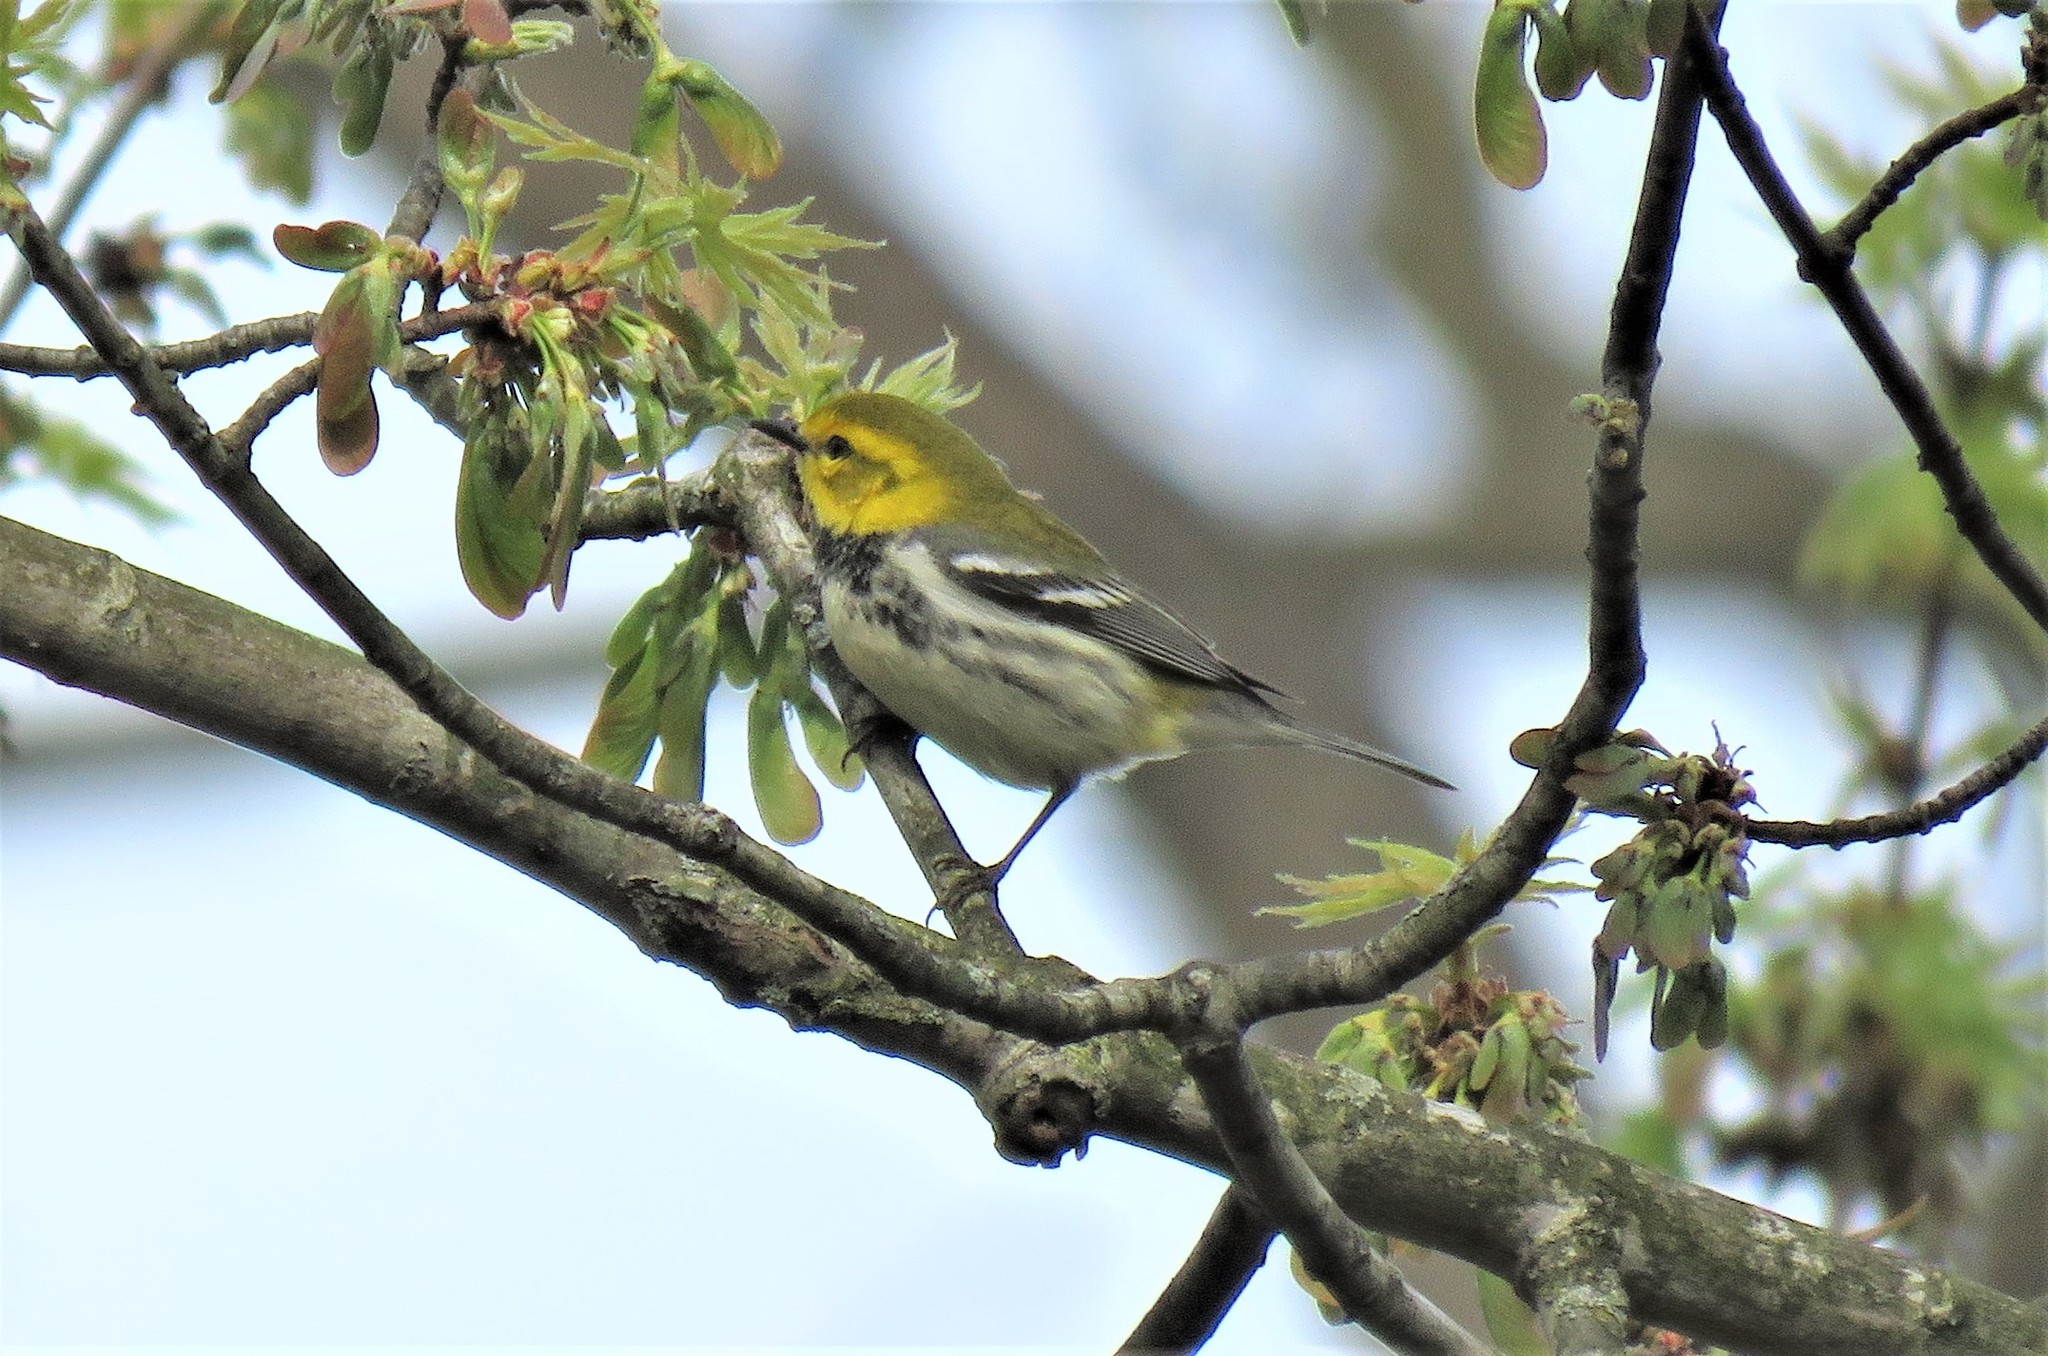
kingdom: Animalia
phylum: Chordata
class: Aves
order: Passeriformes
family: Parulidae
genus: Setophaga
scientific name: Setophaga virens
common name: Black-throated green warbler
